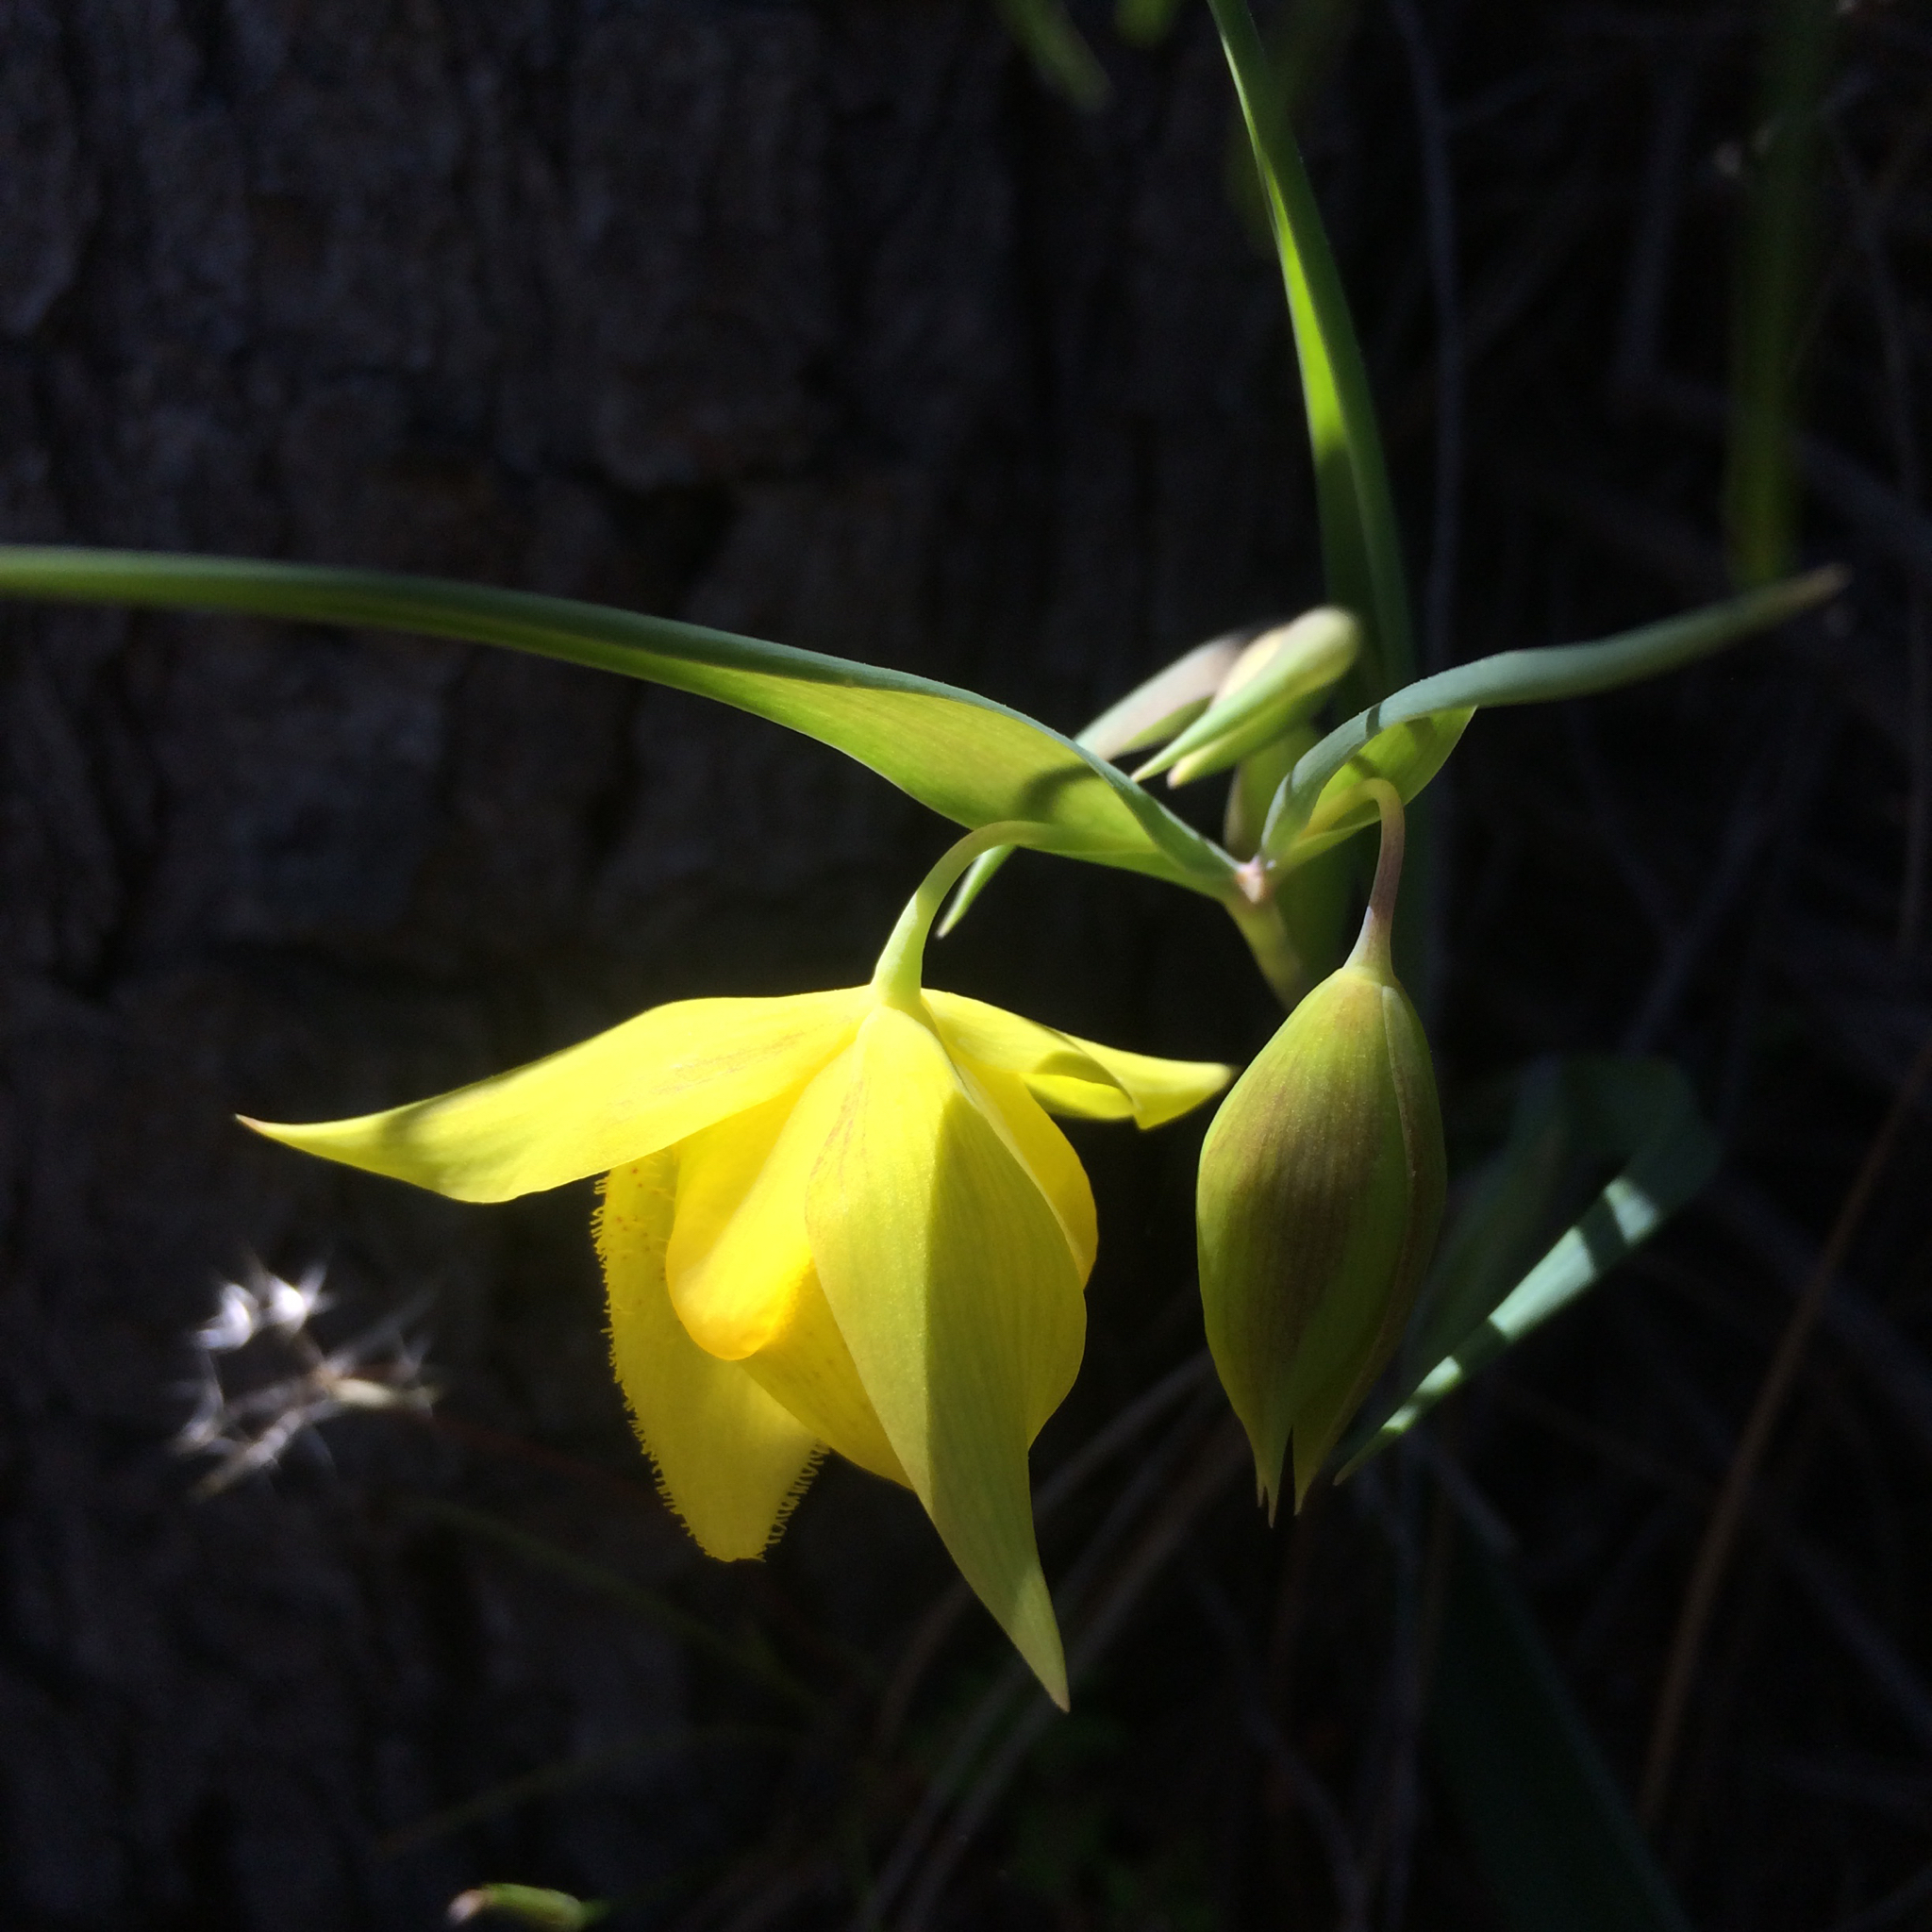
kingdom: Plantae
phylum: Tracheophyta
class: Liliopsida
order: Liliales
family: Liliaceae
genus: Calochortus
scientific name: Calochortus pulchellus
